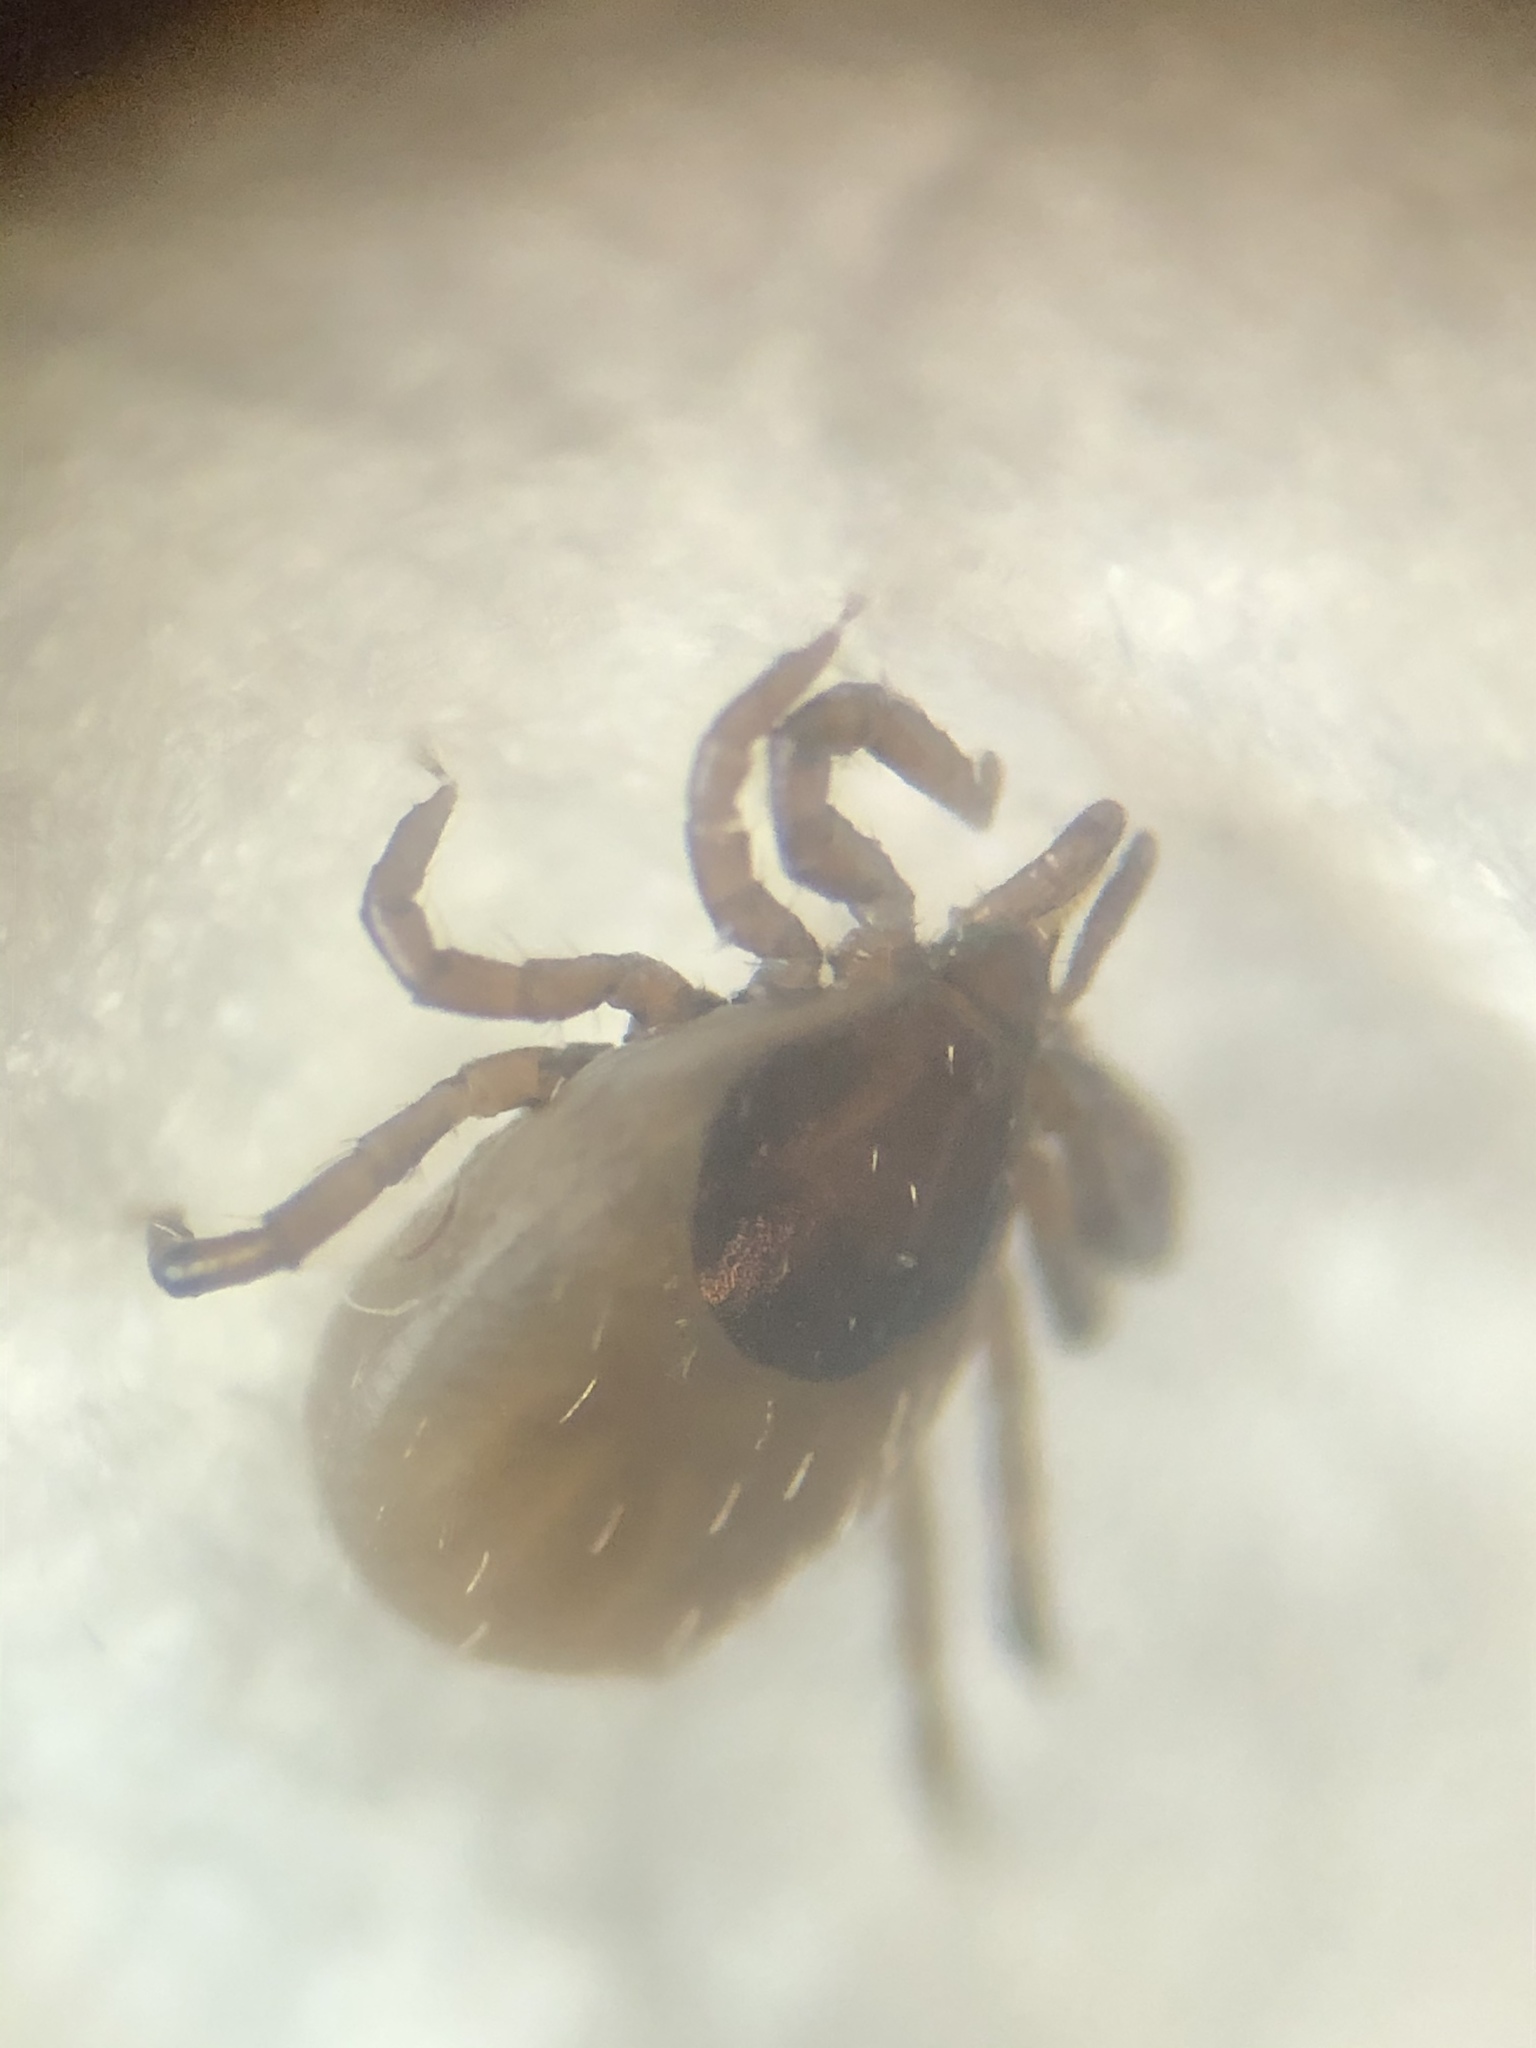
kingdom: Animalia
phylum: Arthropoda
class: Arachnida
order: Ixodida
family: Ixodidae
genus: Ixodes
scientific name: Ixodes ricinus
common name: Castor bean tick
